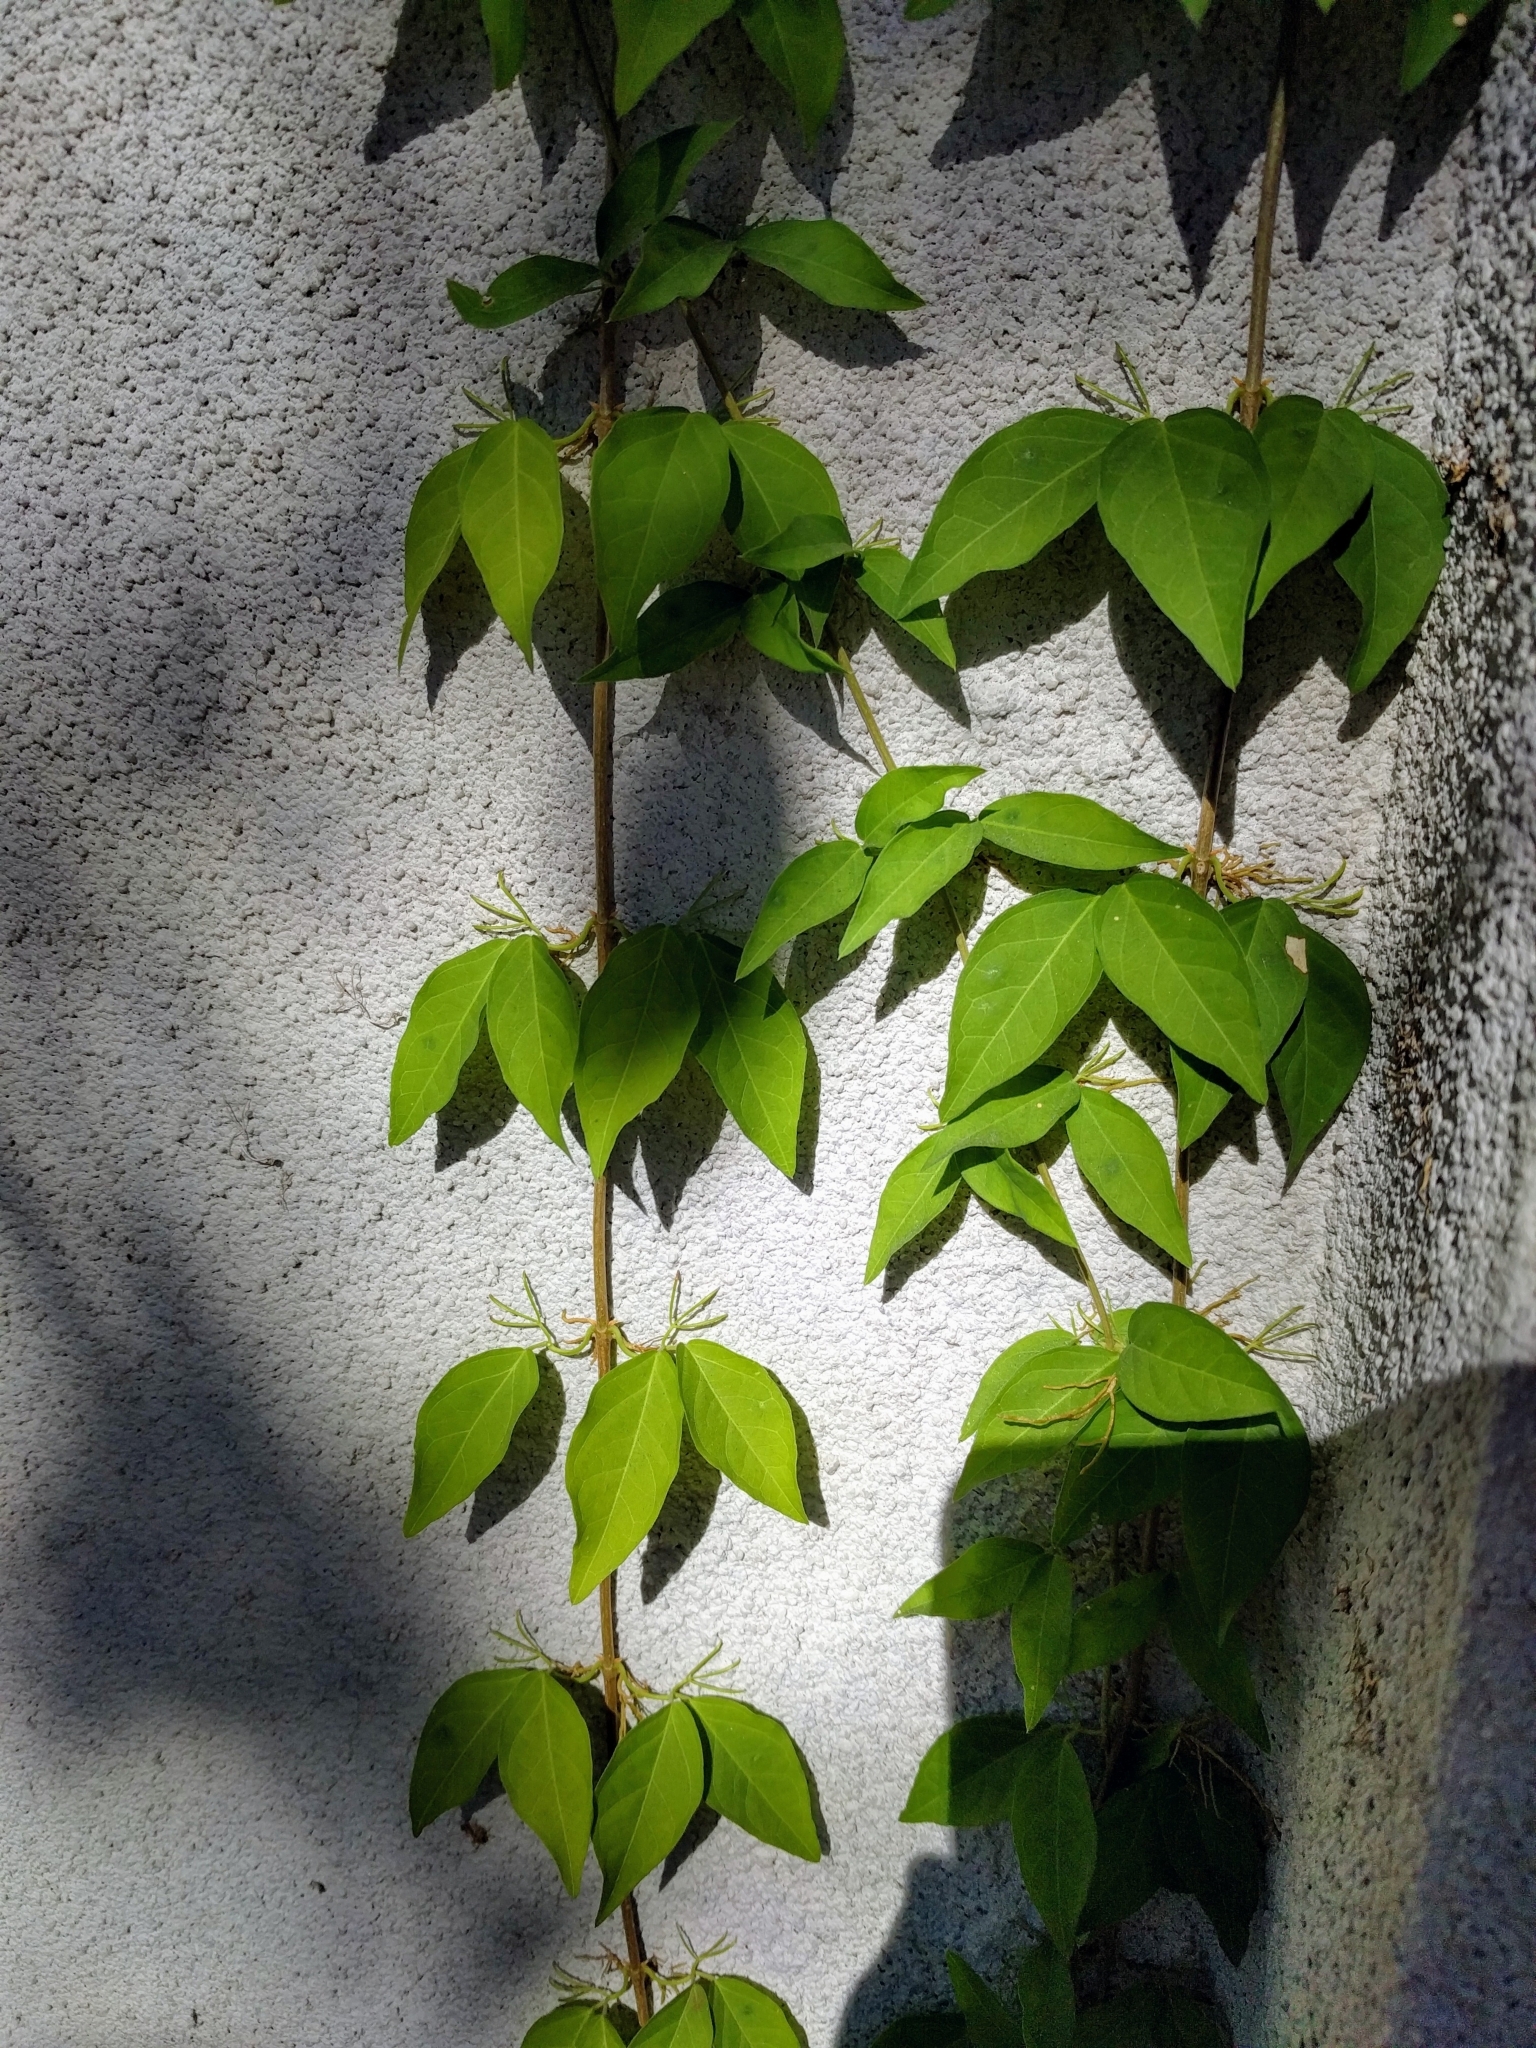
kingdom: Plantae
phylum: Tracheophyta
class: Magnoliopsida
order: Lamiales
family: Bignoniaceae
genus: Bignonia
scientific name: Bignonia capreolata
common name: Crossvine
